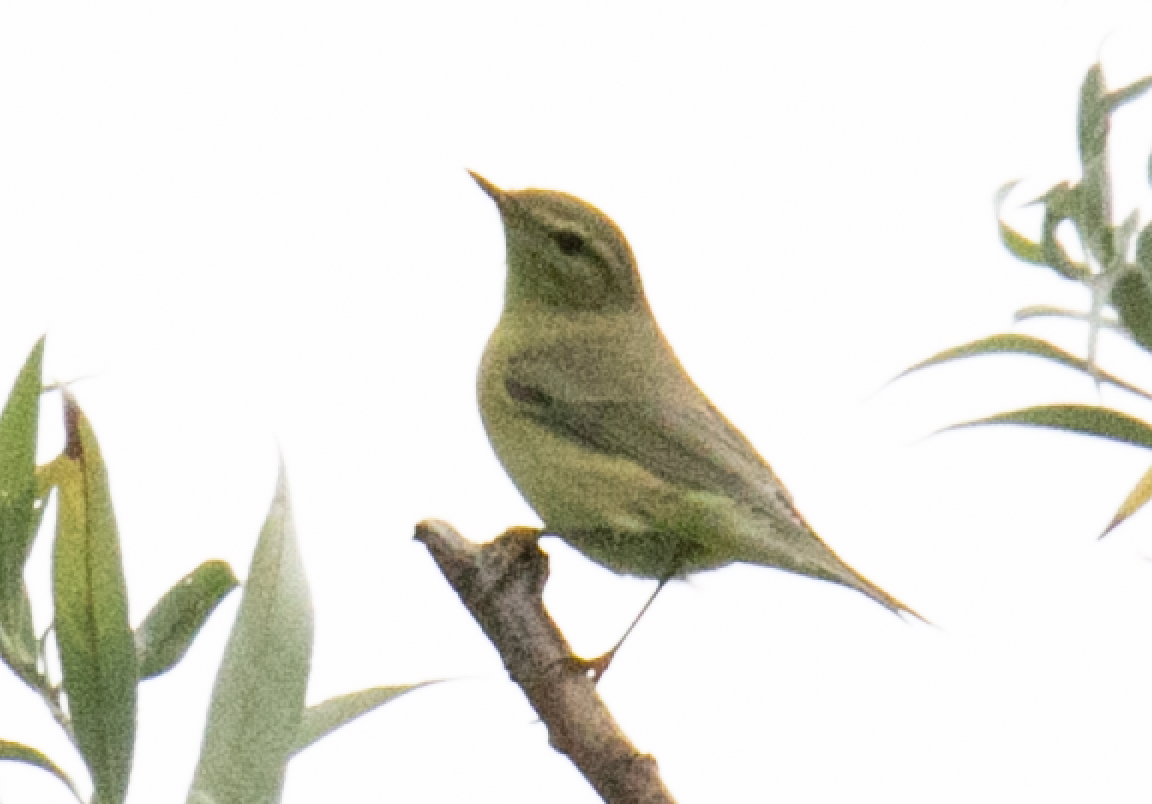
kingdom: Animalia
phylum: Chordata
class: Aves
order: Passeriformes
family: Phylloscopidae
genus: Phylloscopus
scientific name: Phylloscopus trochilus
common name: Willow warbler
